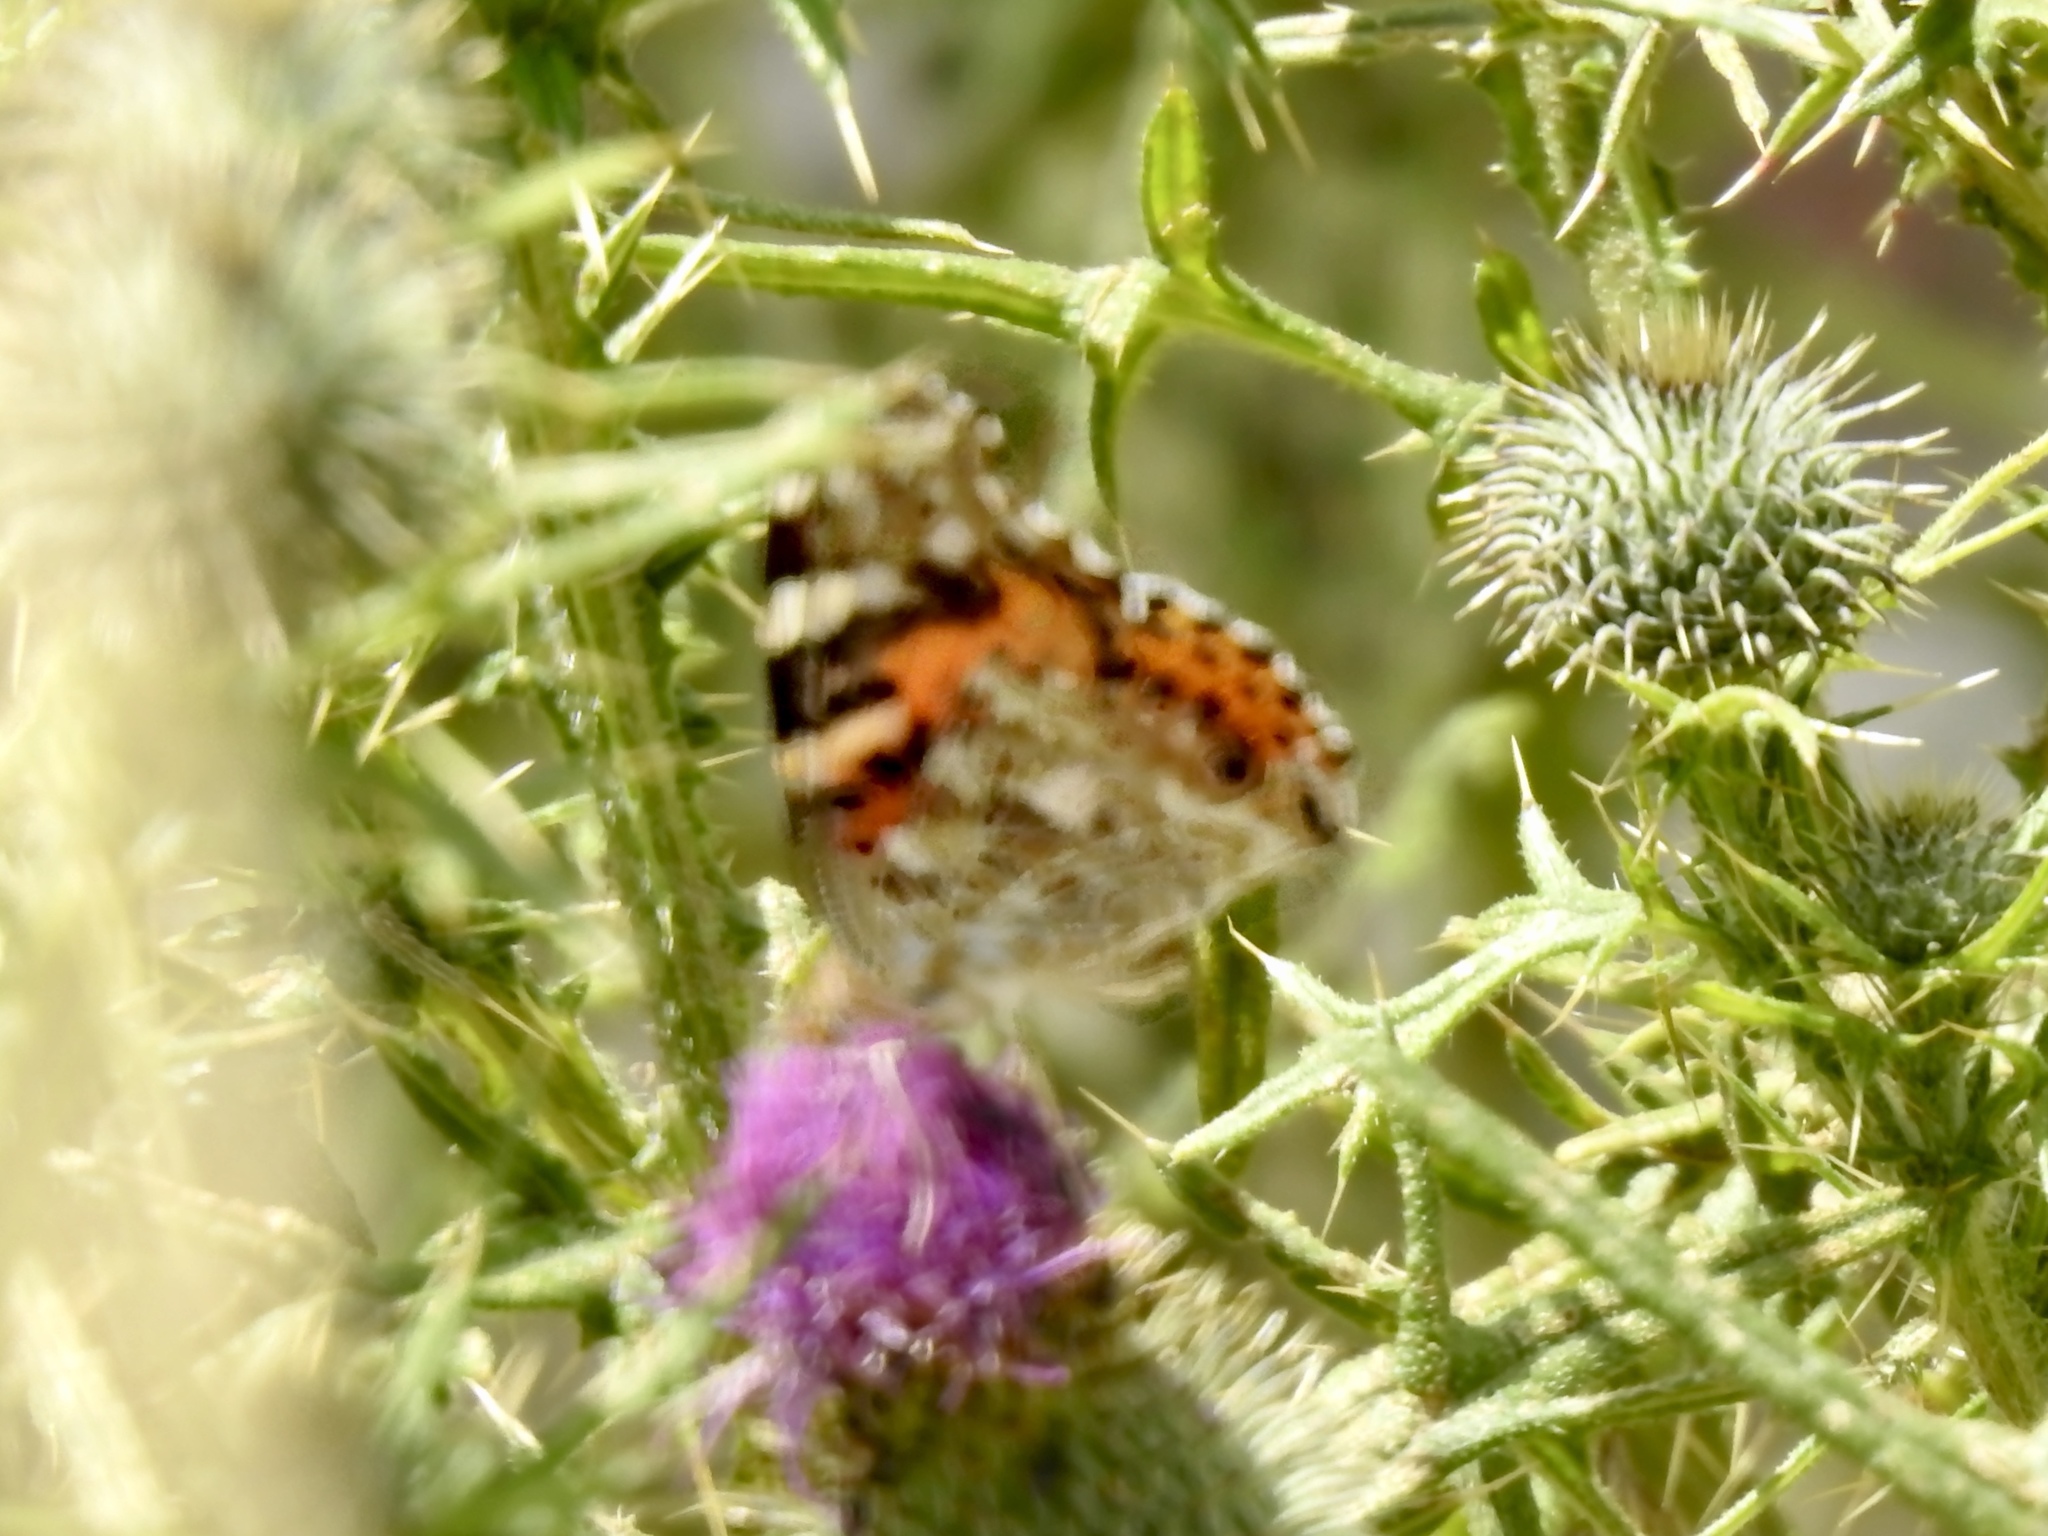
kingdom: Animalia
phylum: Arthropoda
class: Insecta
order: Lepidoptera
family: Nymphalidae
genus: Vanessa
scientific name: Vanessa cardui
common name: Painted lady
